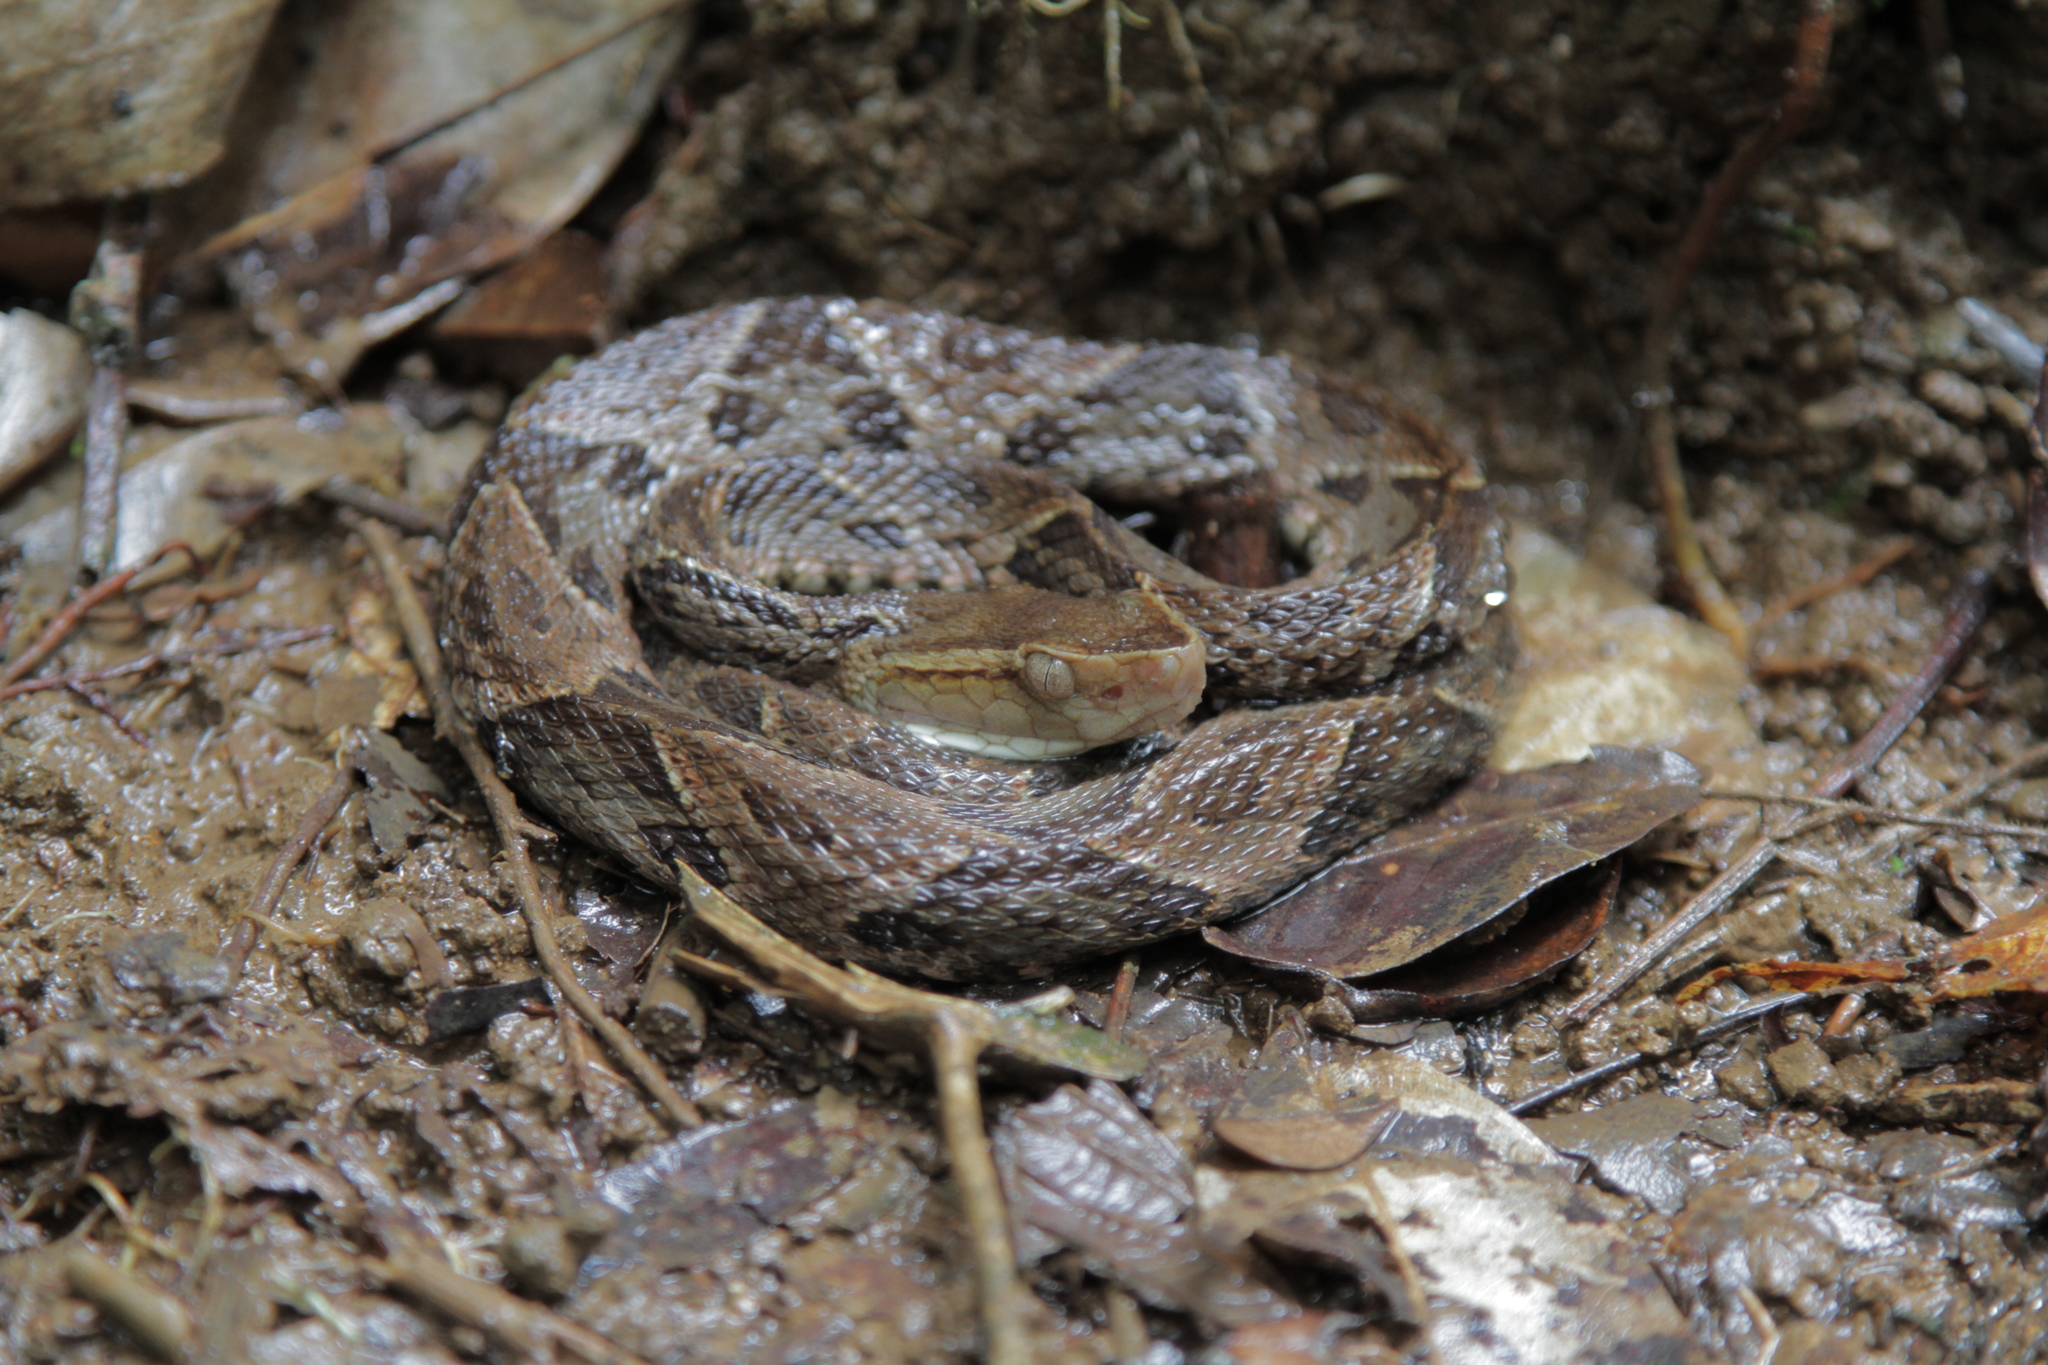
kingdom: Animalia
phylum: Chordata
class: Squamata
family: Viperidae
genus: Bothrops
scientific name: Bothrops asper
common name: Terciopelo
